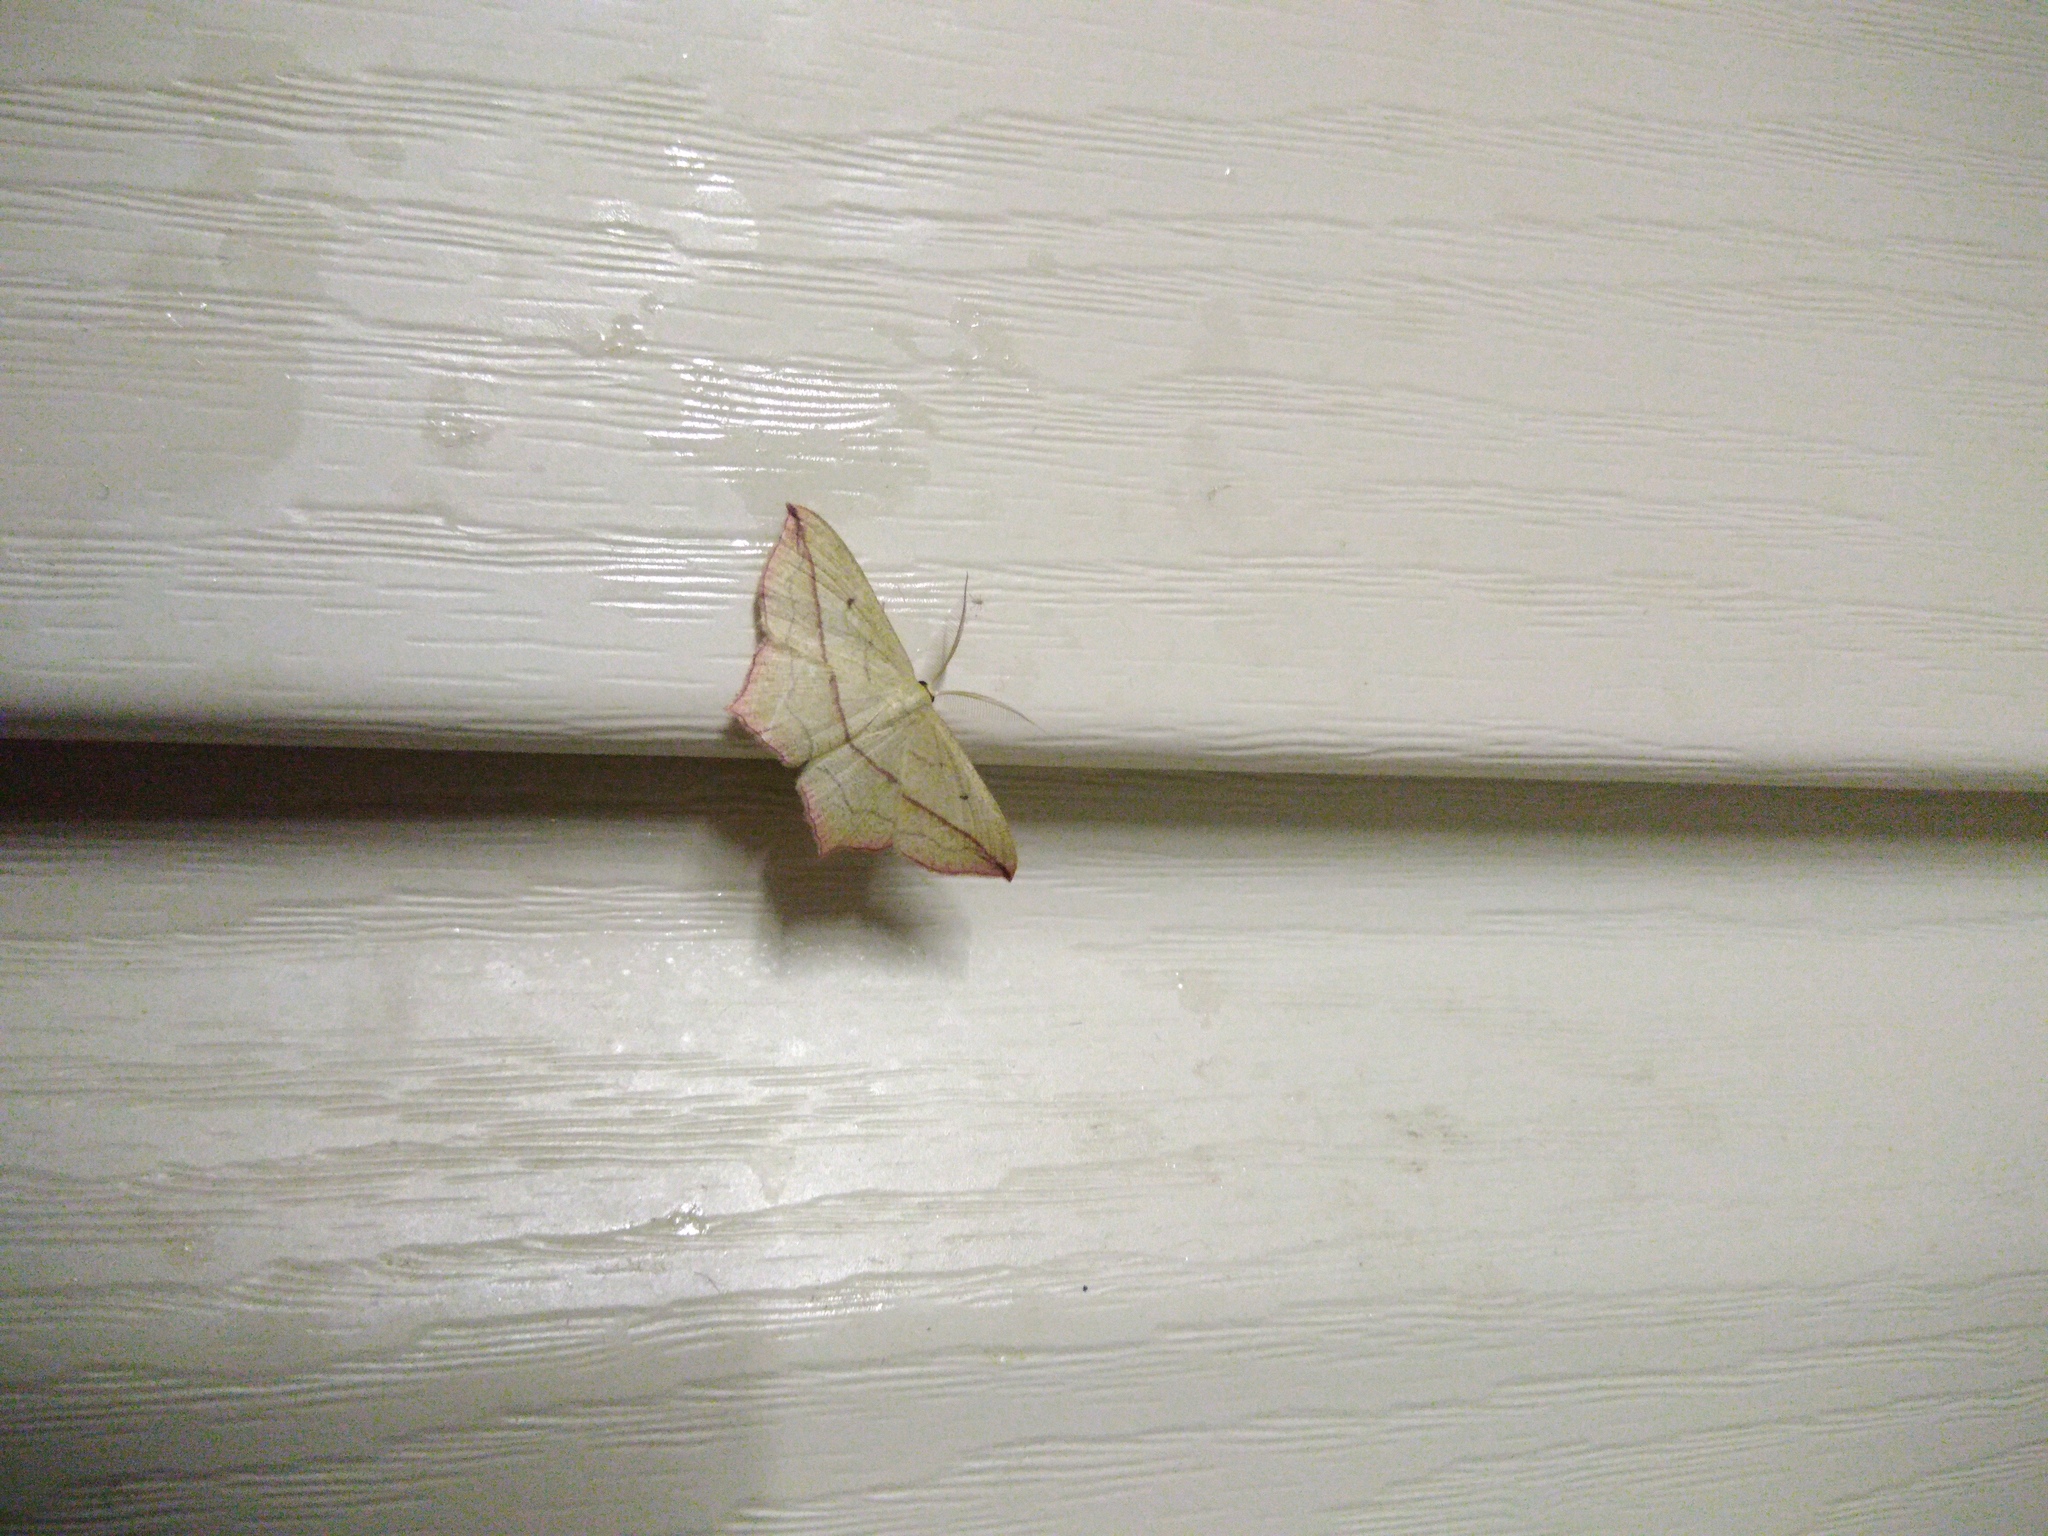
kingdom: Animalia
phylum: Arthropoda
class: Insecta
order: Lepidoptera
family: Geometridae
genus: Timandra
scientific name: Timandra comae
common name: Blood-vein
